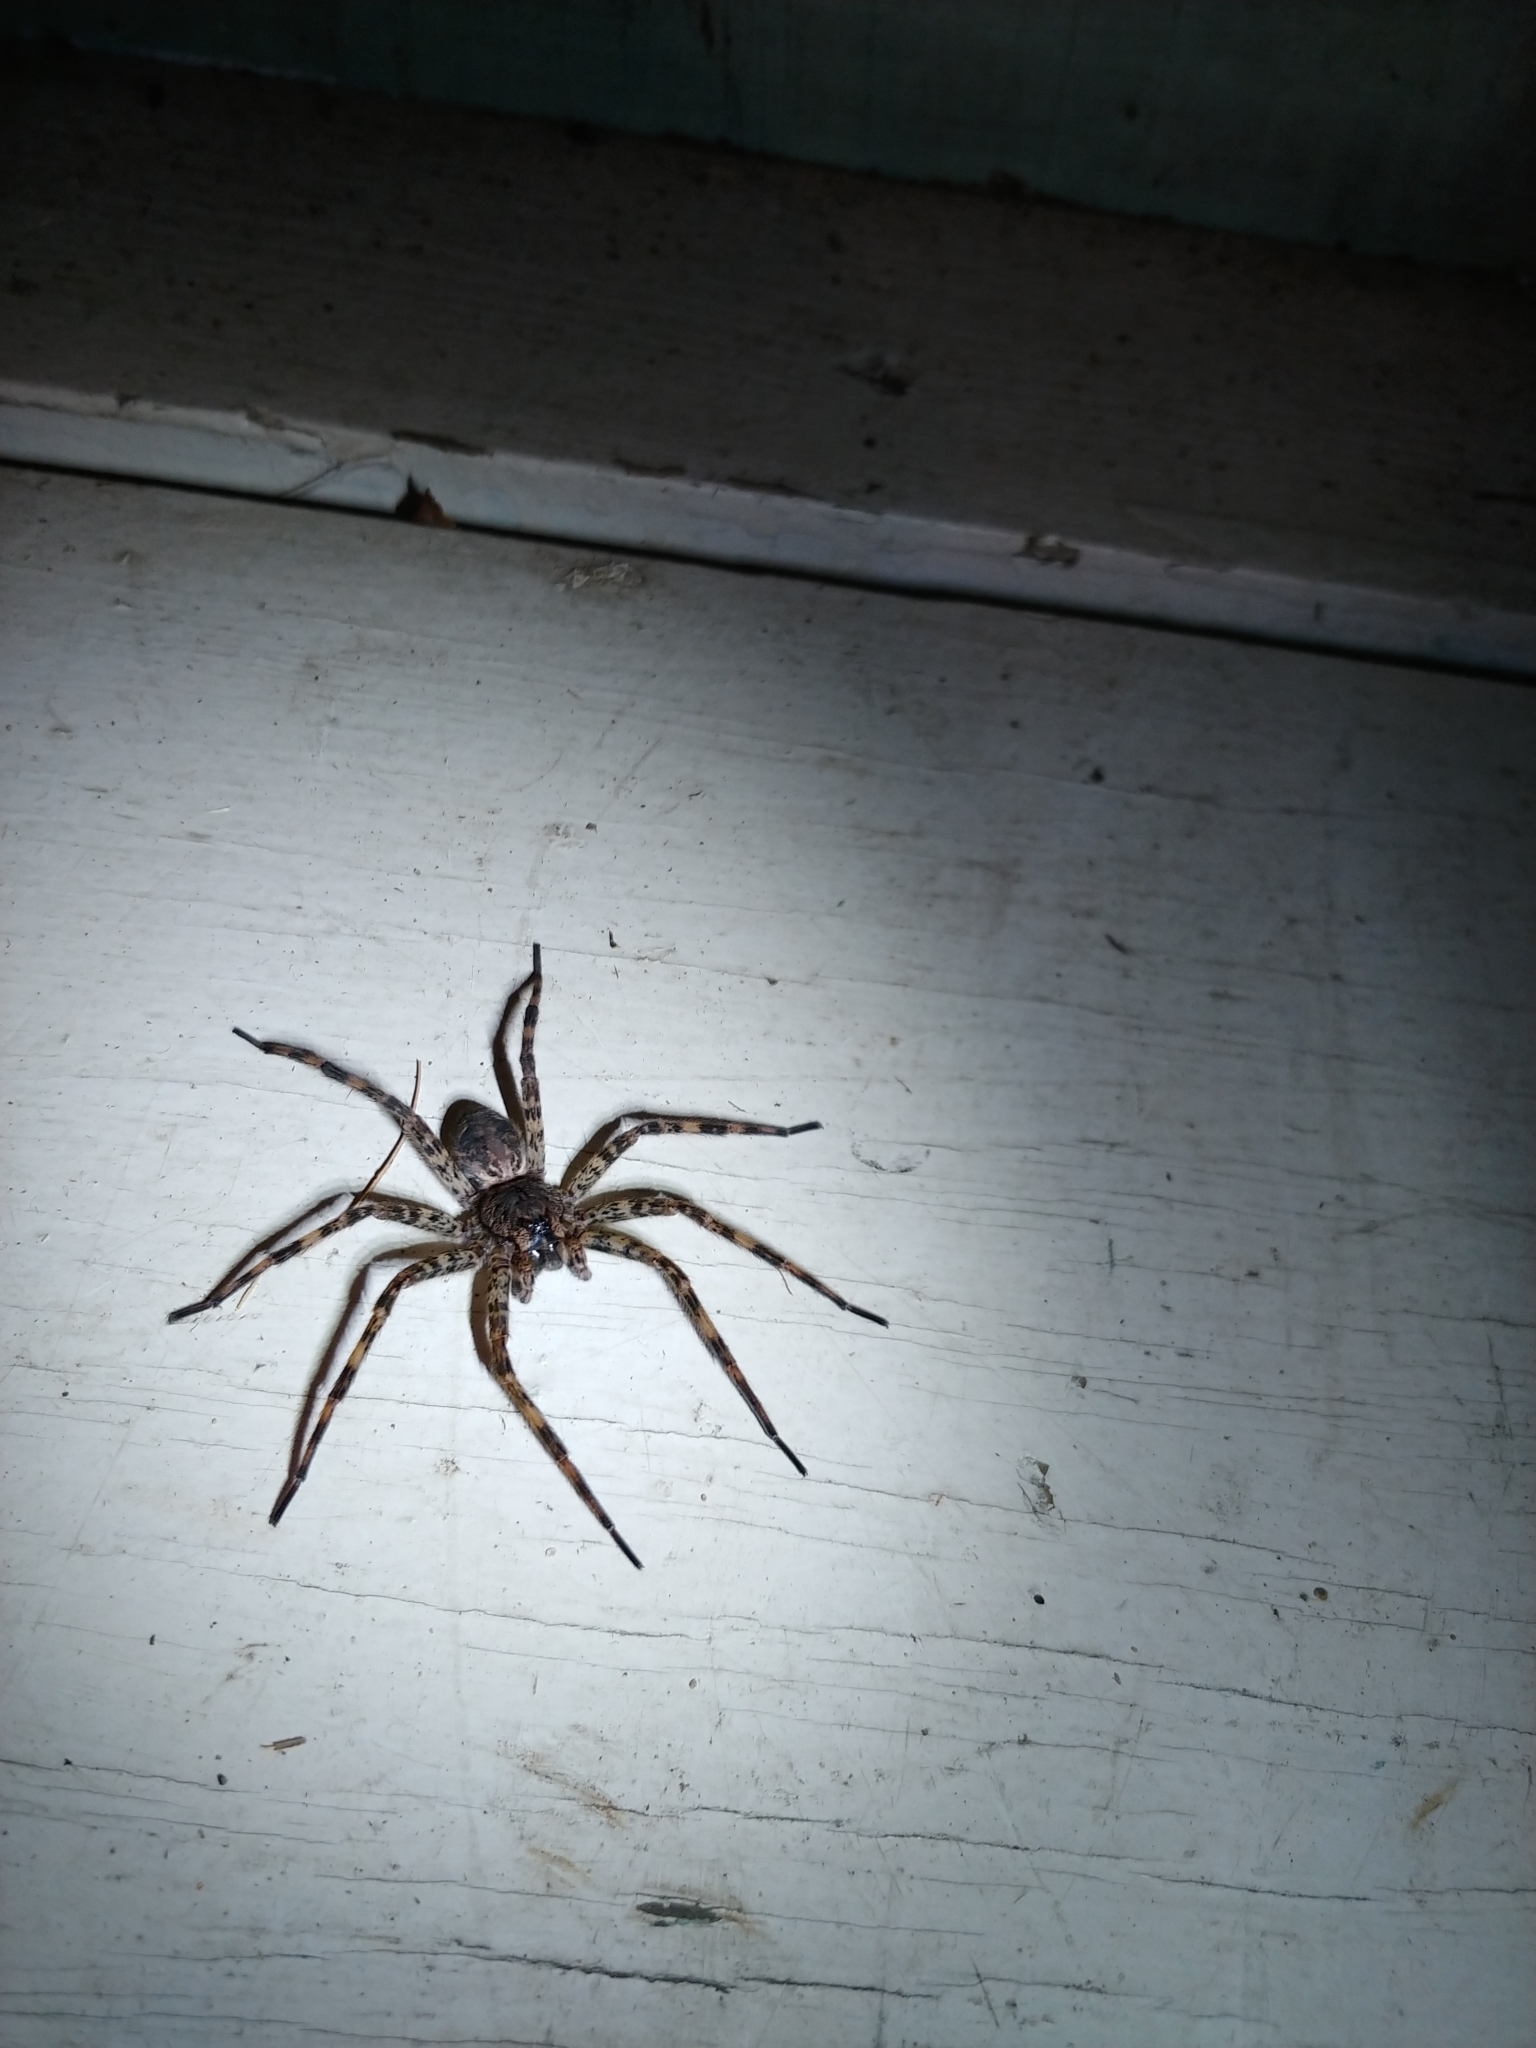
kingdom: Animalia
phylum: Arthropoda
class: Arachnida
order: Araneae
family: Pisauridae
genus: Dolomedes
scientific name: Dolomedes tenebrosus
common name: Dark fishing spider
